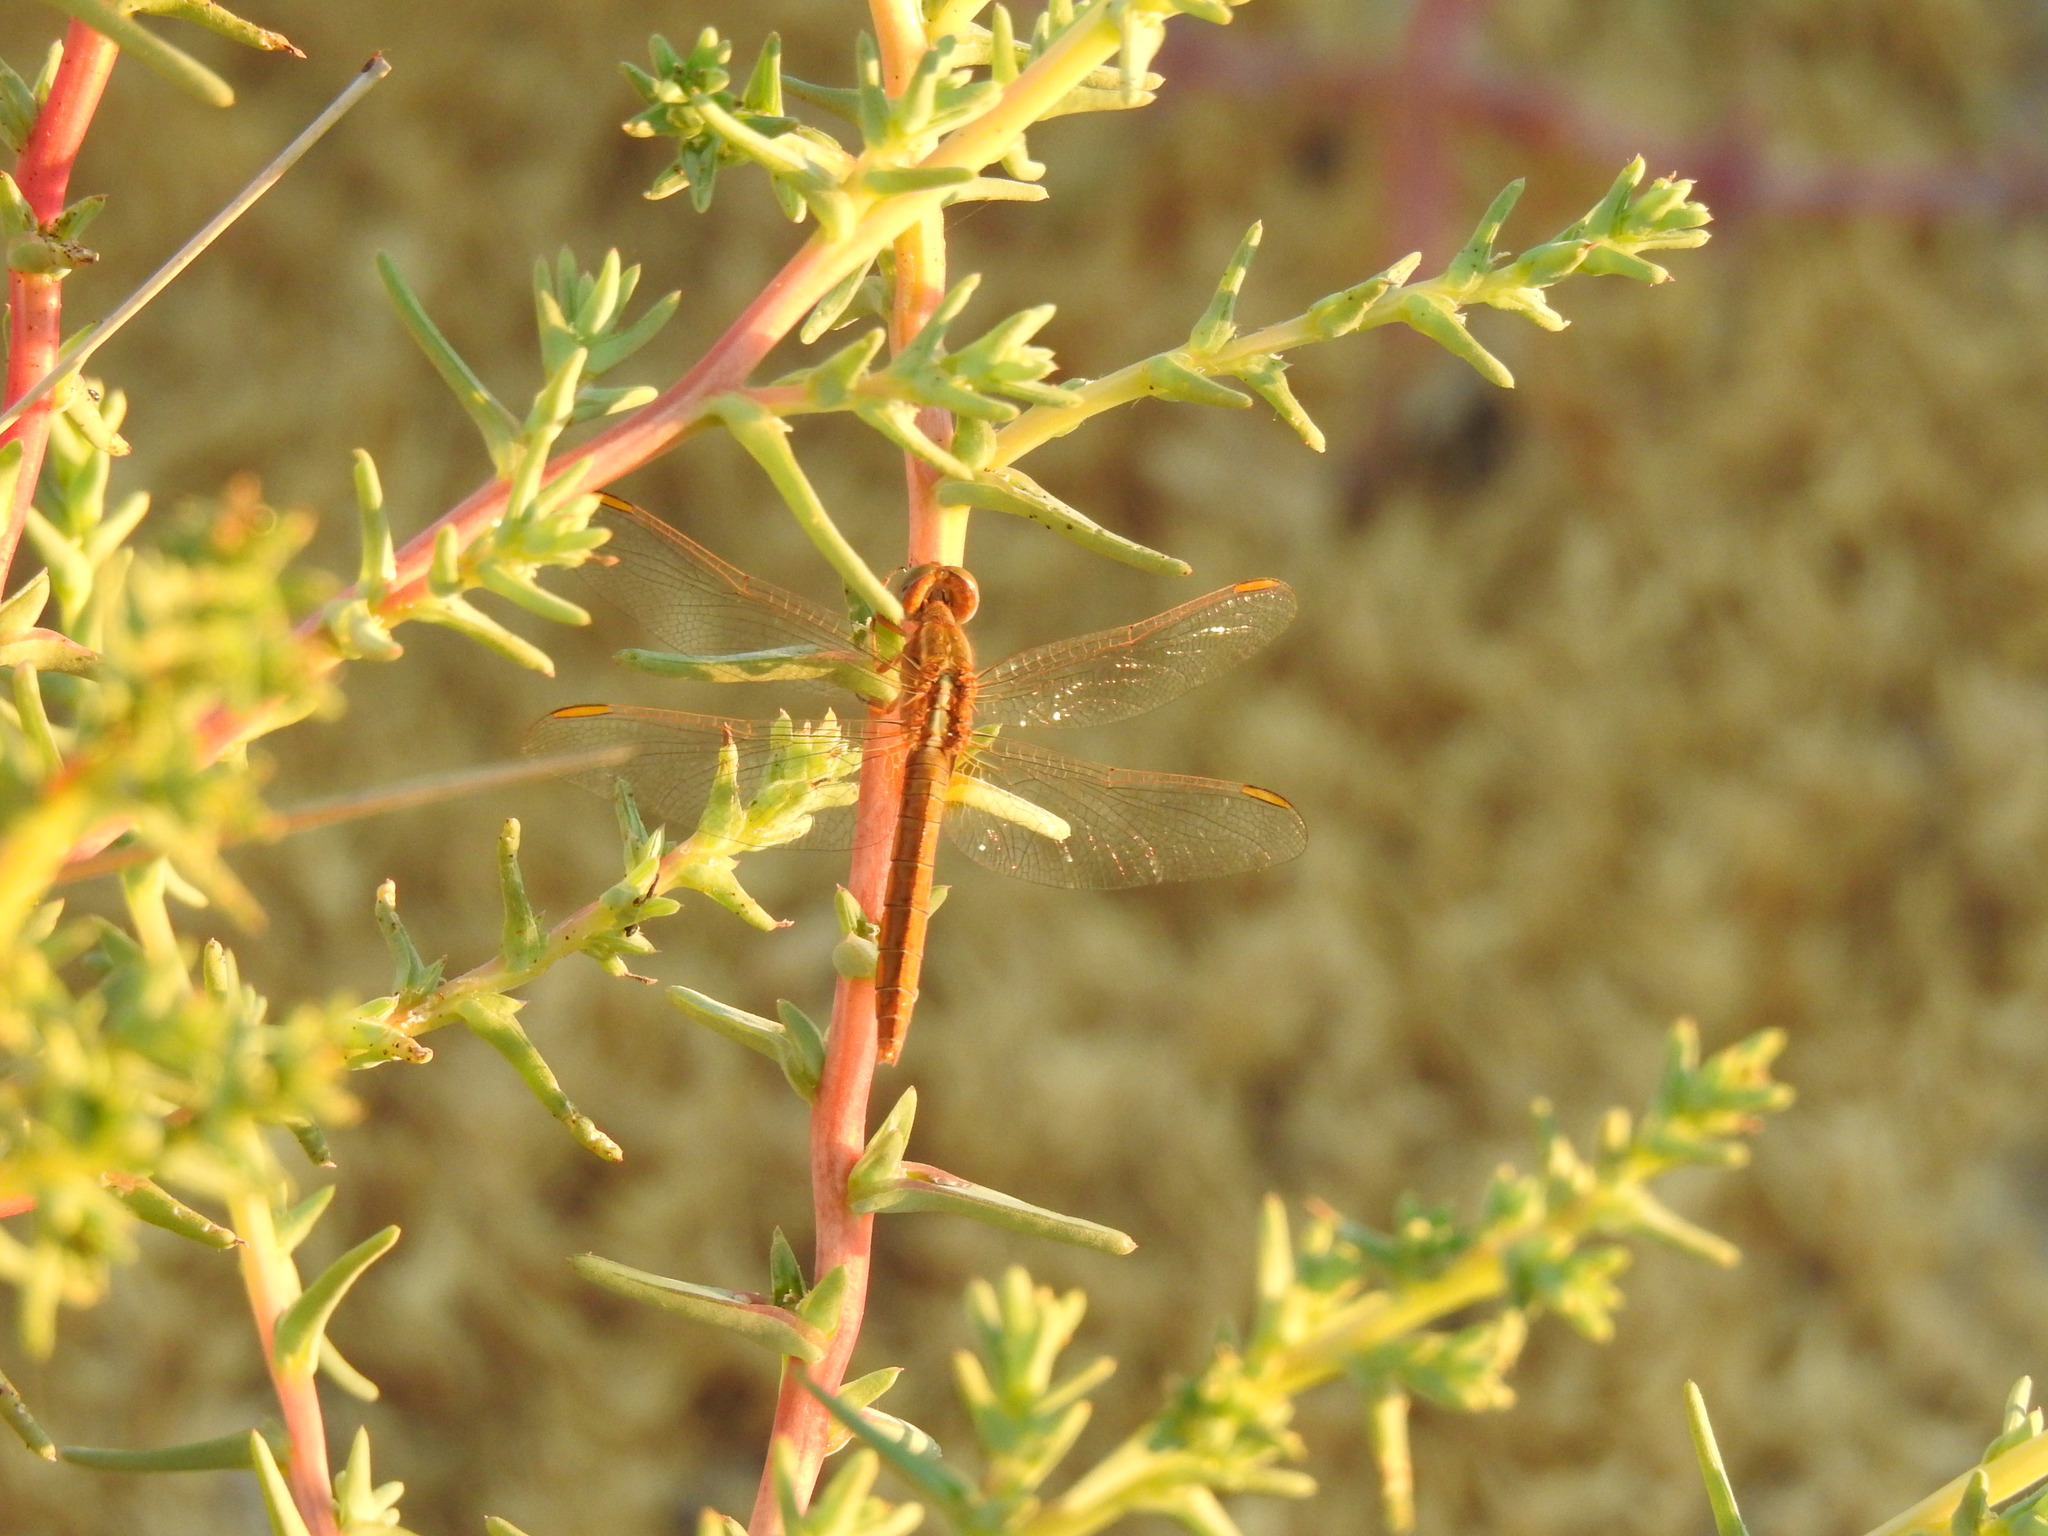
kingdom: Animalia
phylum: Arthropoda
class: Insecta
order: Odonata
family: Libellulidae
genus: Crocothemis
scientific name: Crocothemis erythraea
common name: Scarlet dragonfly
